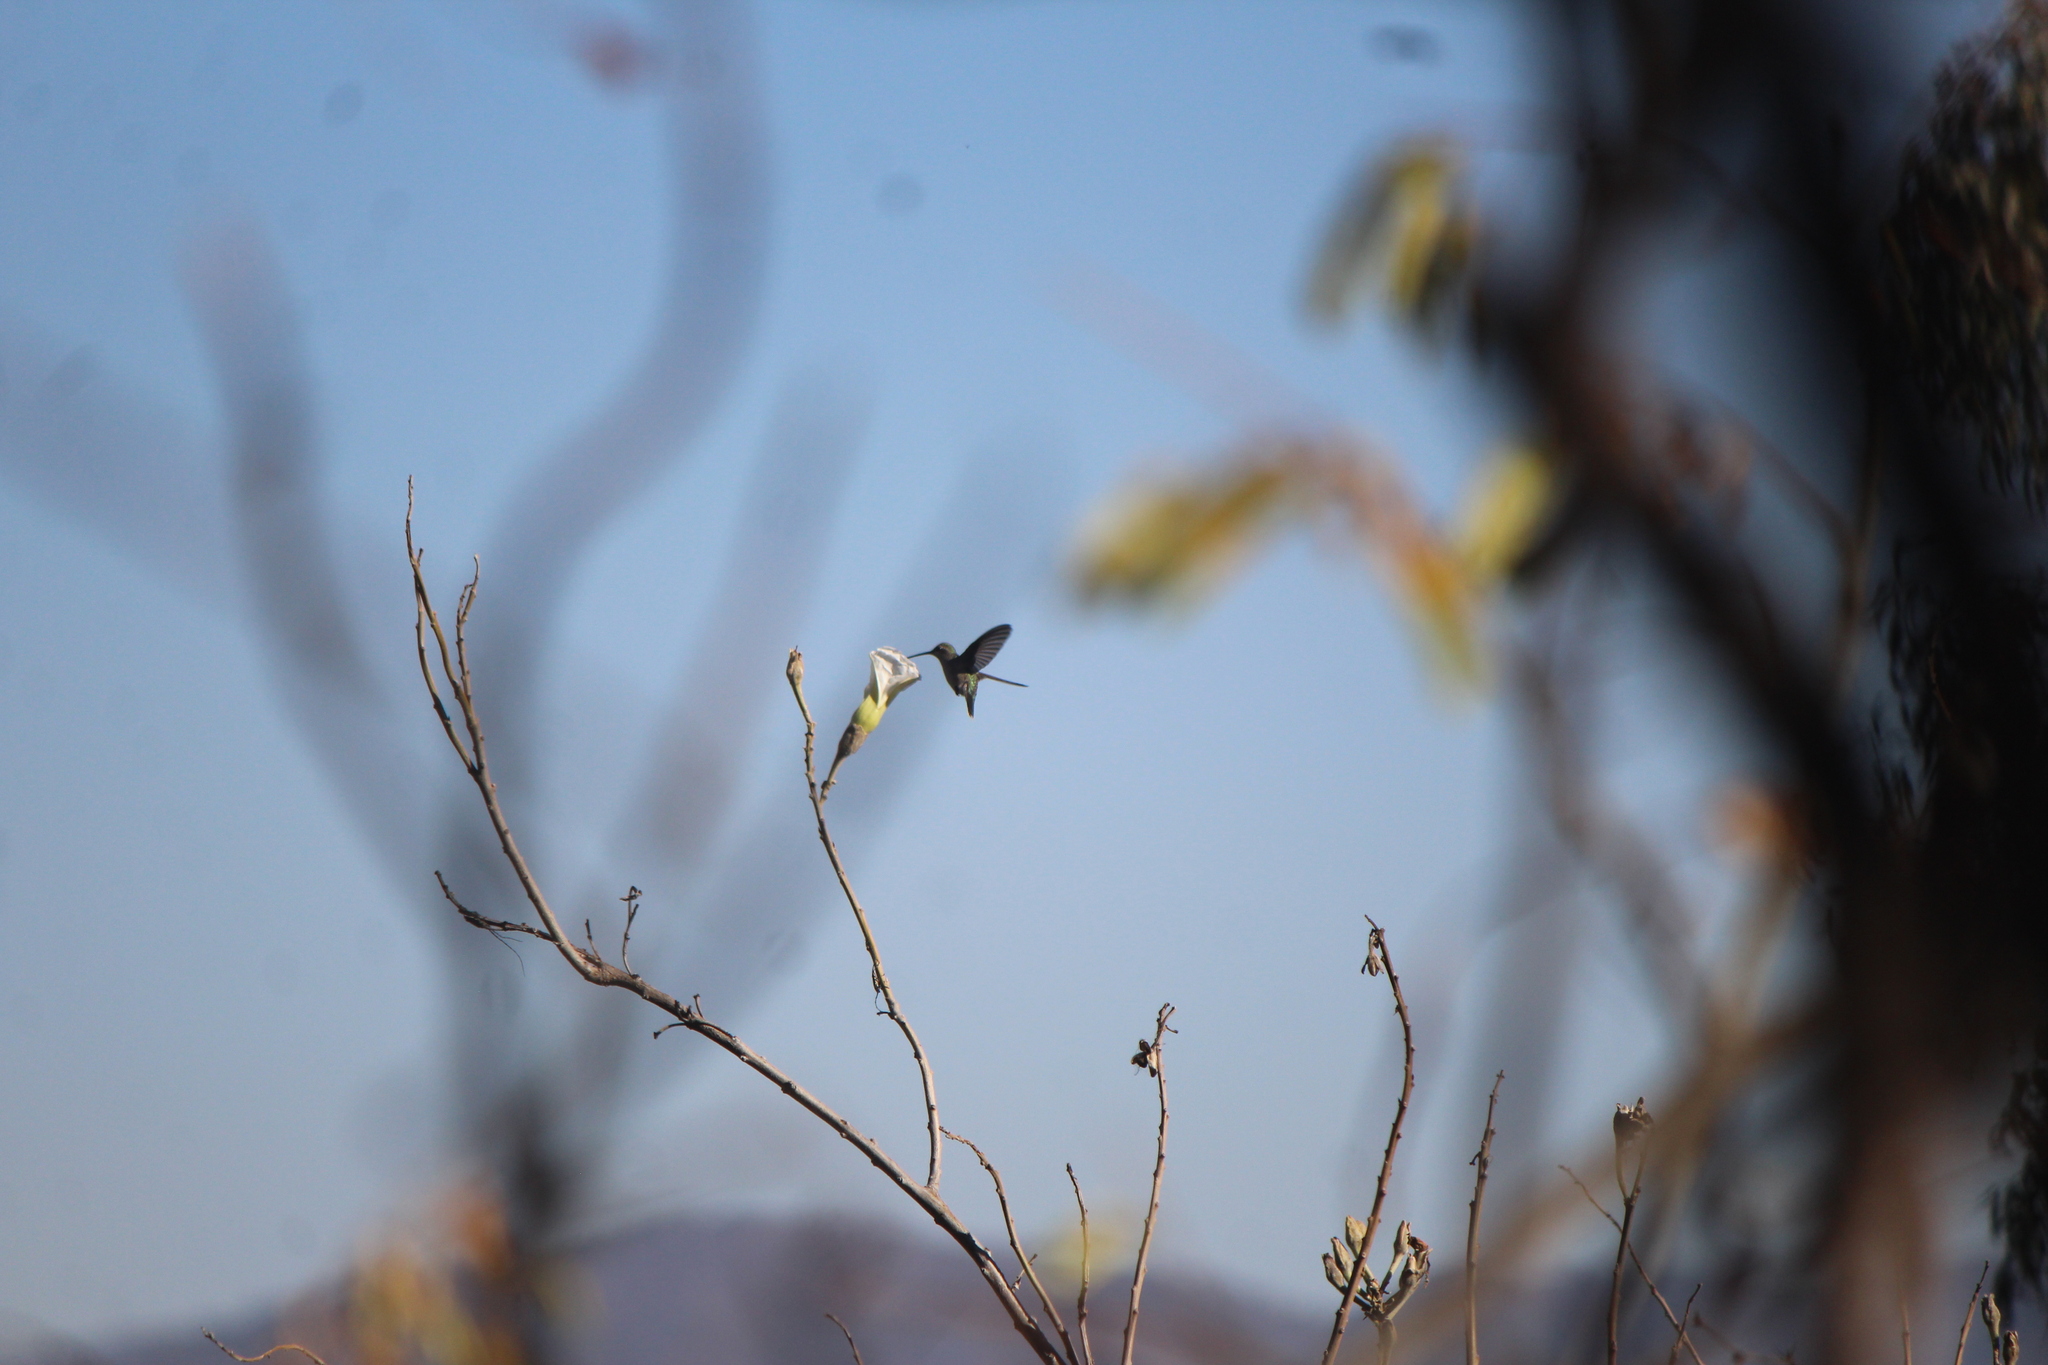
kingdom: Animalia
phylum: Chordata
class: Aves
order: Apodiformes
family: Trochilidae
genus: Cynanthus
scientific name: Cynanthus latirostris
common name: Broad-billed hummingbird
